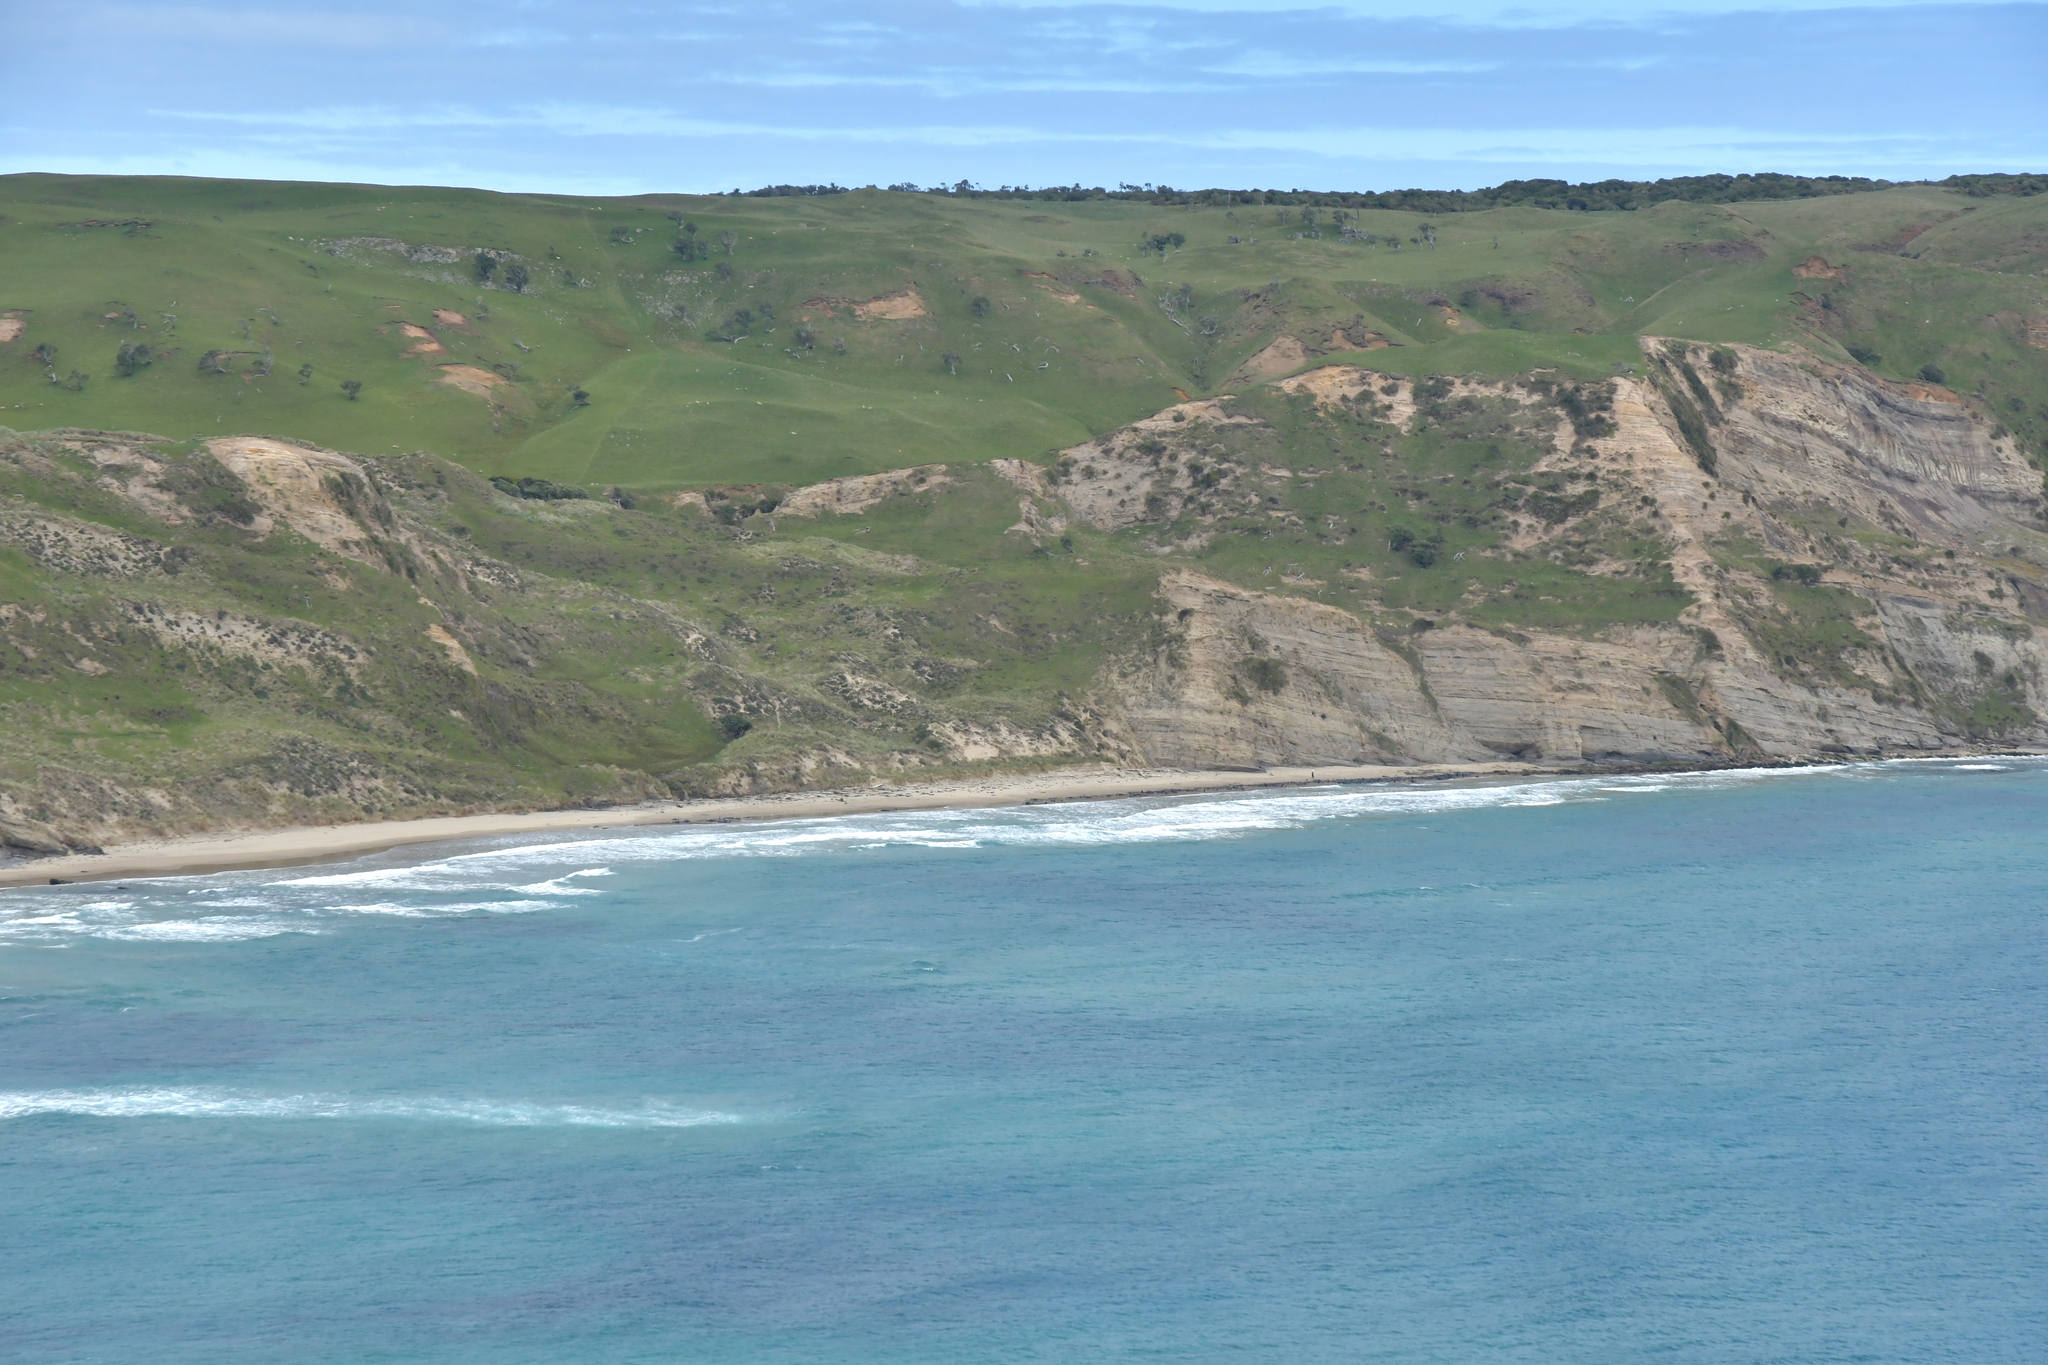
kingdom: Animalia
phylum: Chordata
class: Mammalia
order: Cetacea
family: Delphinidae
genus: Globicephala
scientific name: Globicephala melas
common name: Long-finned pilot whale
